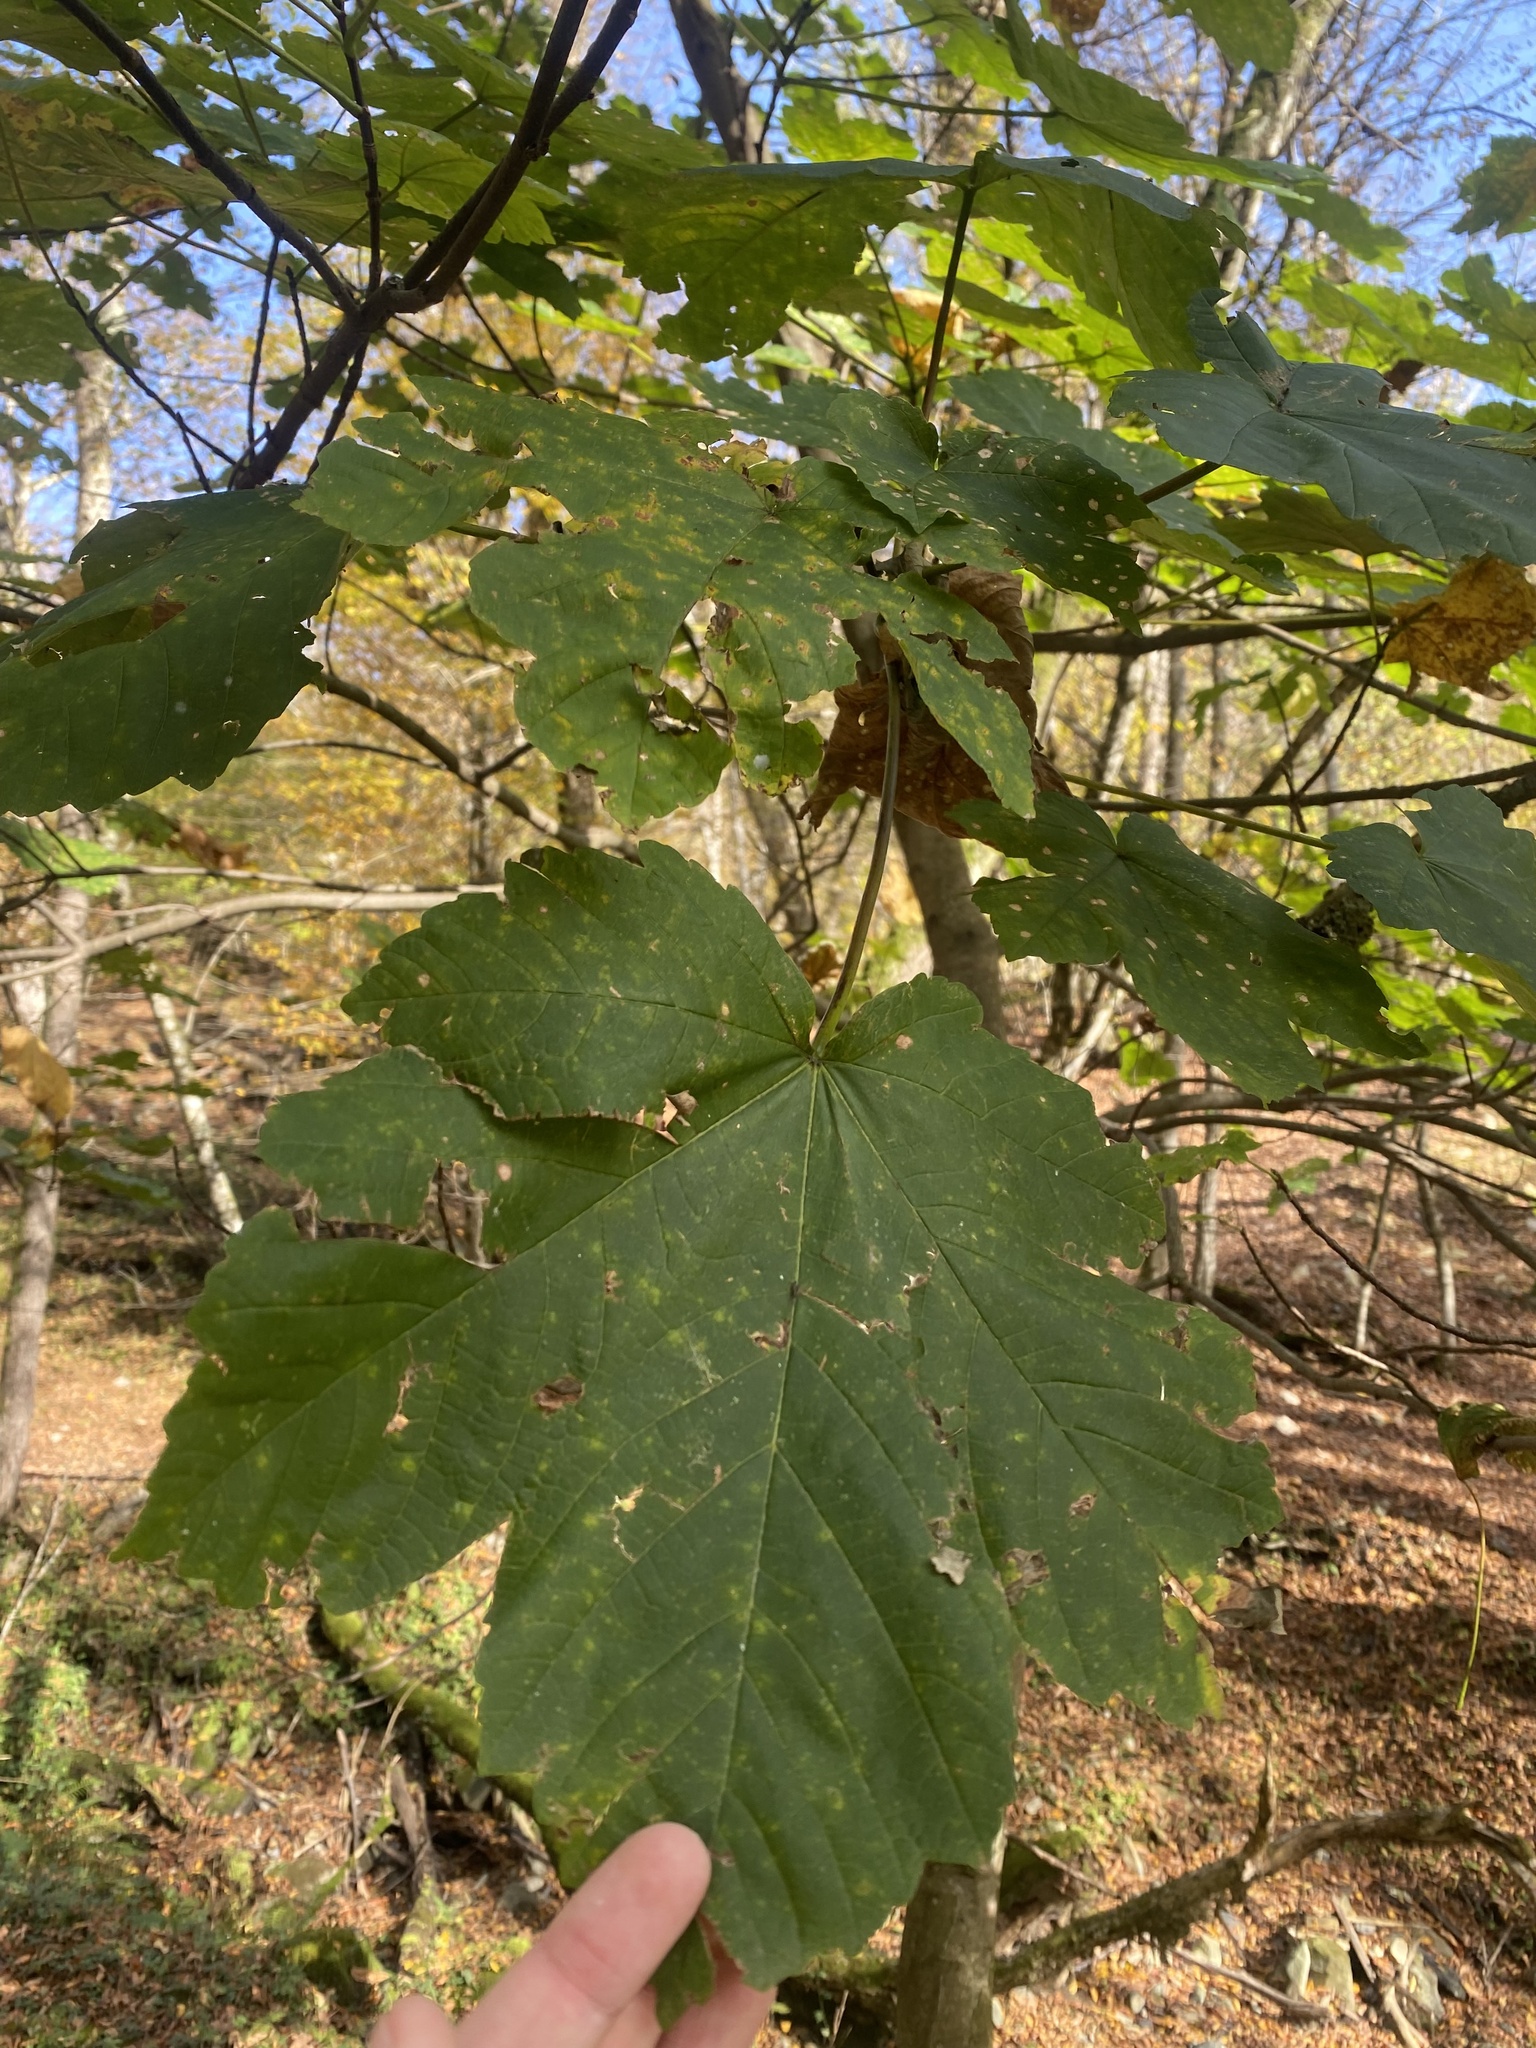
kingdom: Plantae
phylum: Tracheophyta
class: Magnoliopsida
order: Sapindales
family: Sapindaceae
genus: Acer
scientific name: Acer pseudoplatanus
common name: Sycamore
